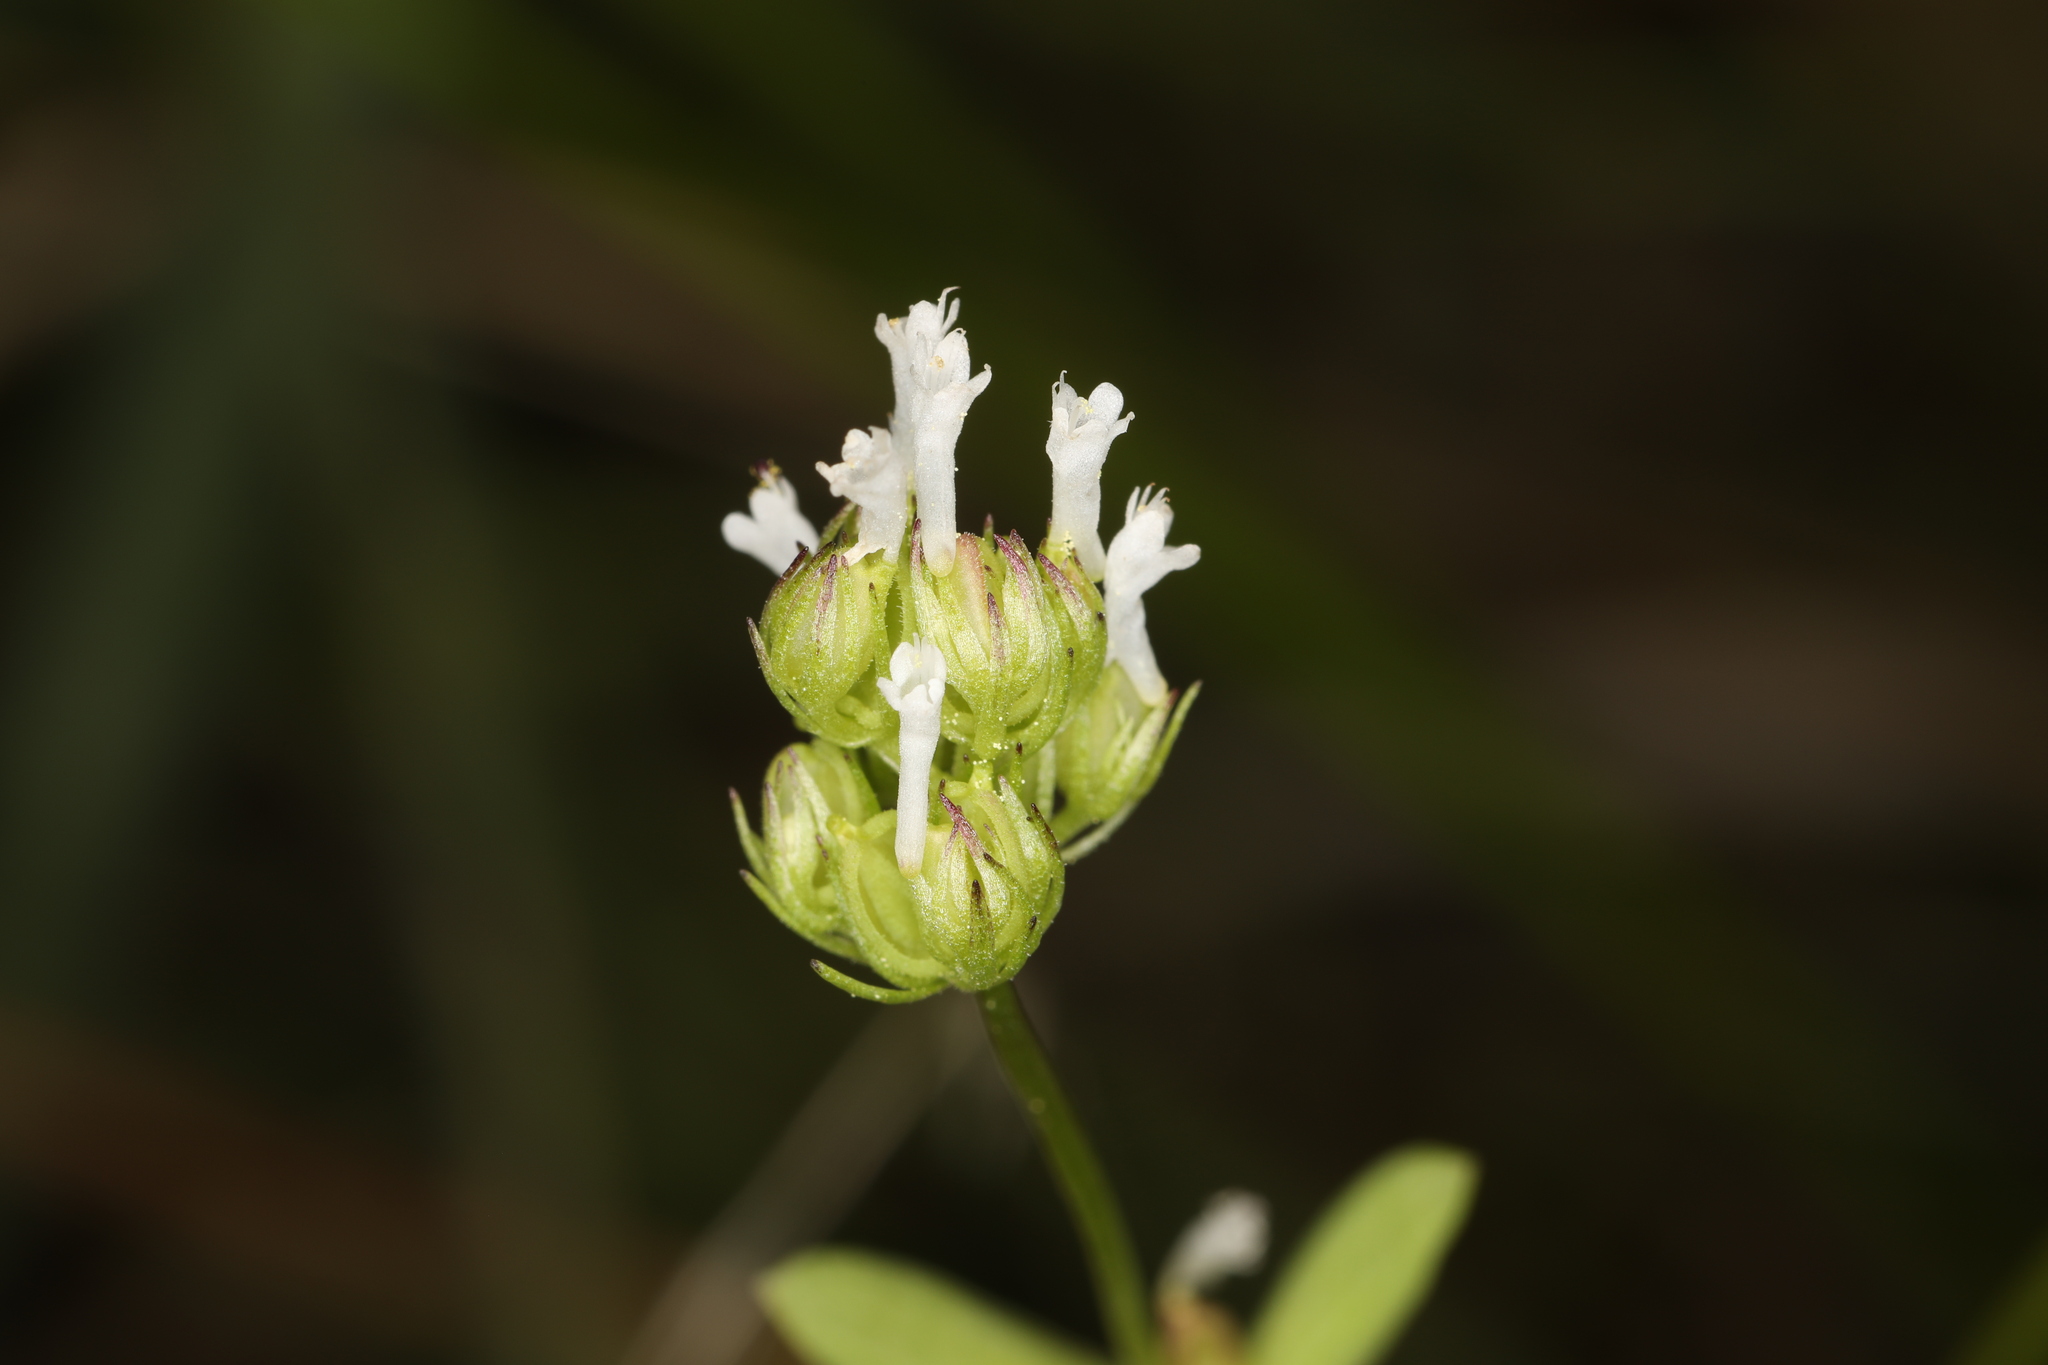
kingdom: Plantae
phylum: Tracheophyta
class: Magnoliopsida
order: Dipsacales
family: Caprifoliaceae
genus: Plectritis
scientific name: Plectritis macroptera
